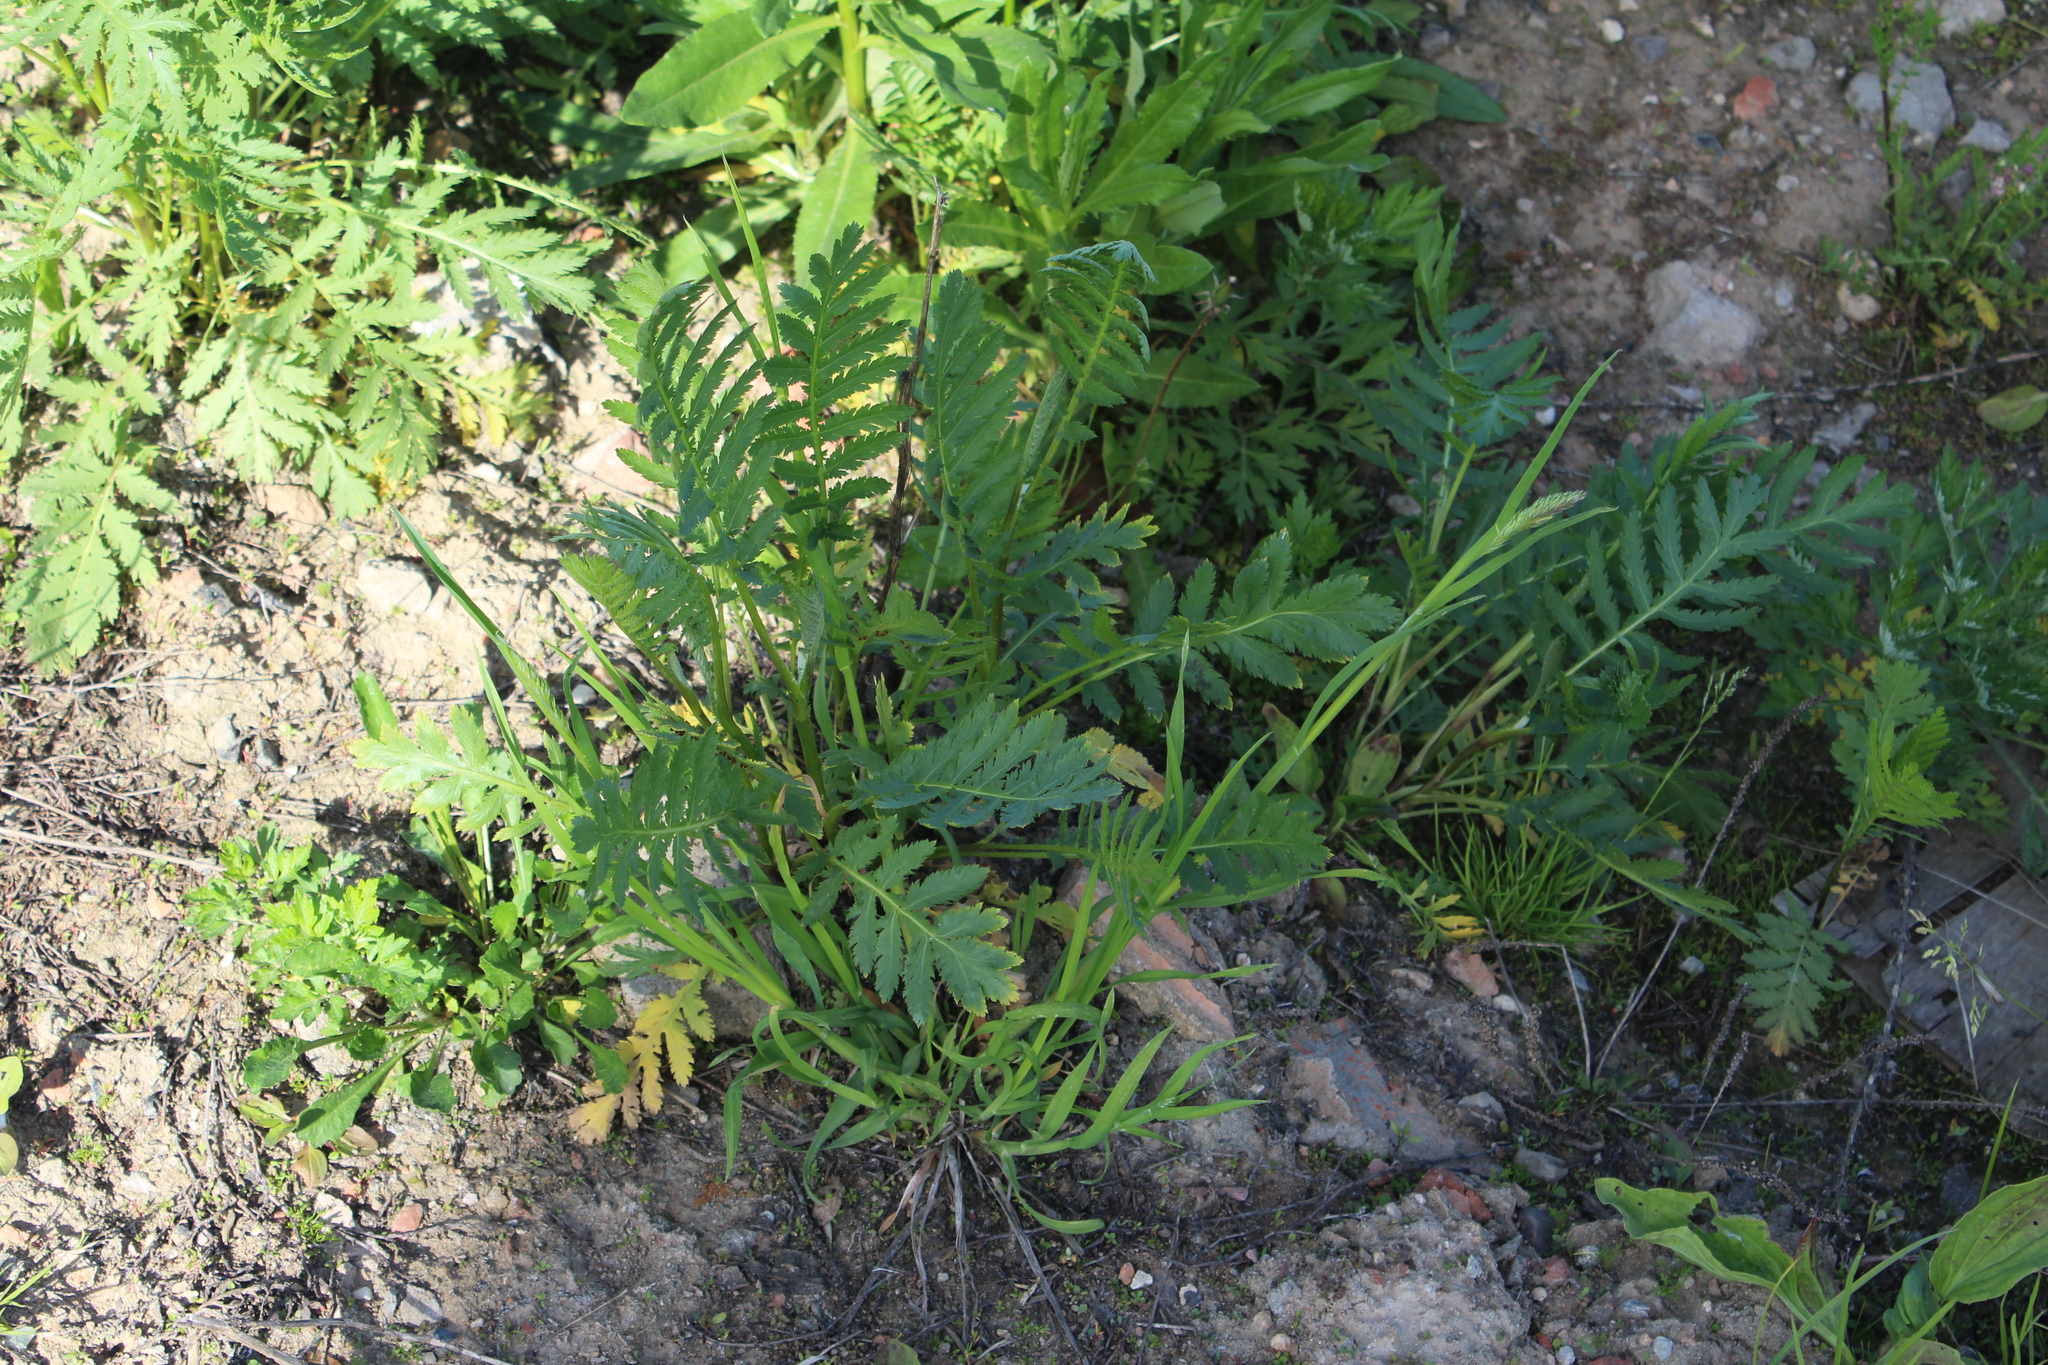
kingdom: Plantae
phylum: Tracheophyta
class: Magnoliopsida
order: Asterales
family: Asteraceae
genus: Tanacetum
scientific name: Tanacetum vulgare
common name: Common tansy
